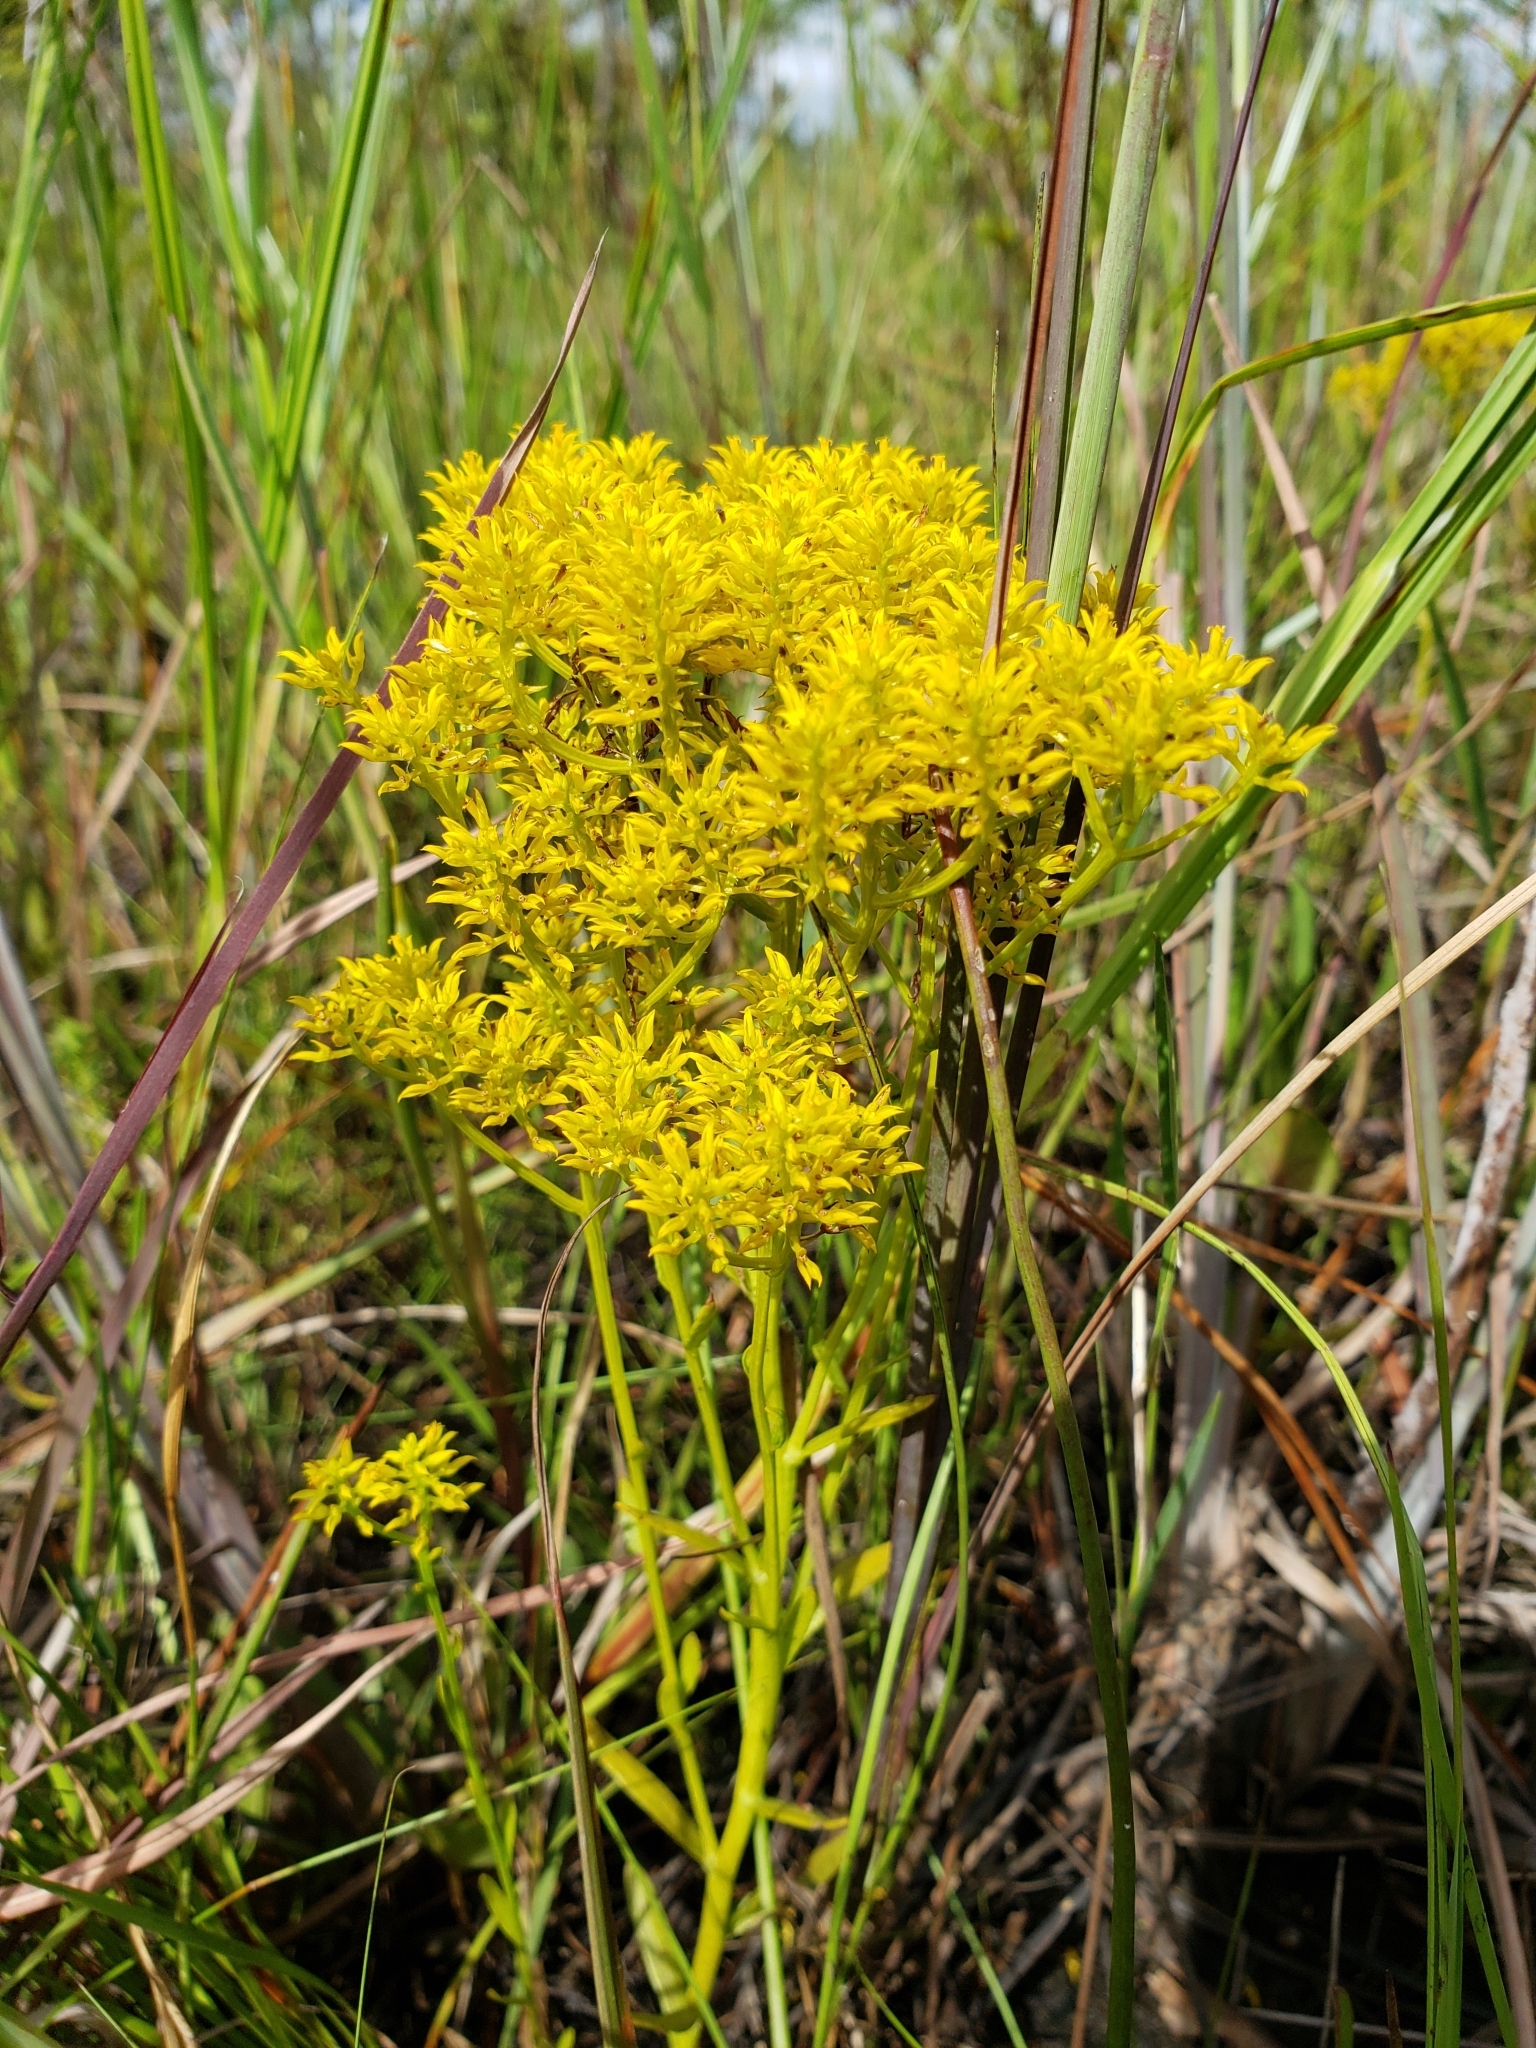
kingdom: Plantae
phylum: Tracheophyta
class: Magnoliopsida
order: Fabales
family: Polygalaceae
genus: Polygala
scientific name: Polygala ramosa
